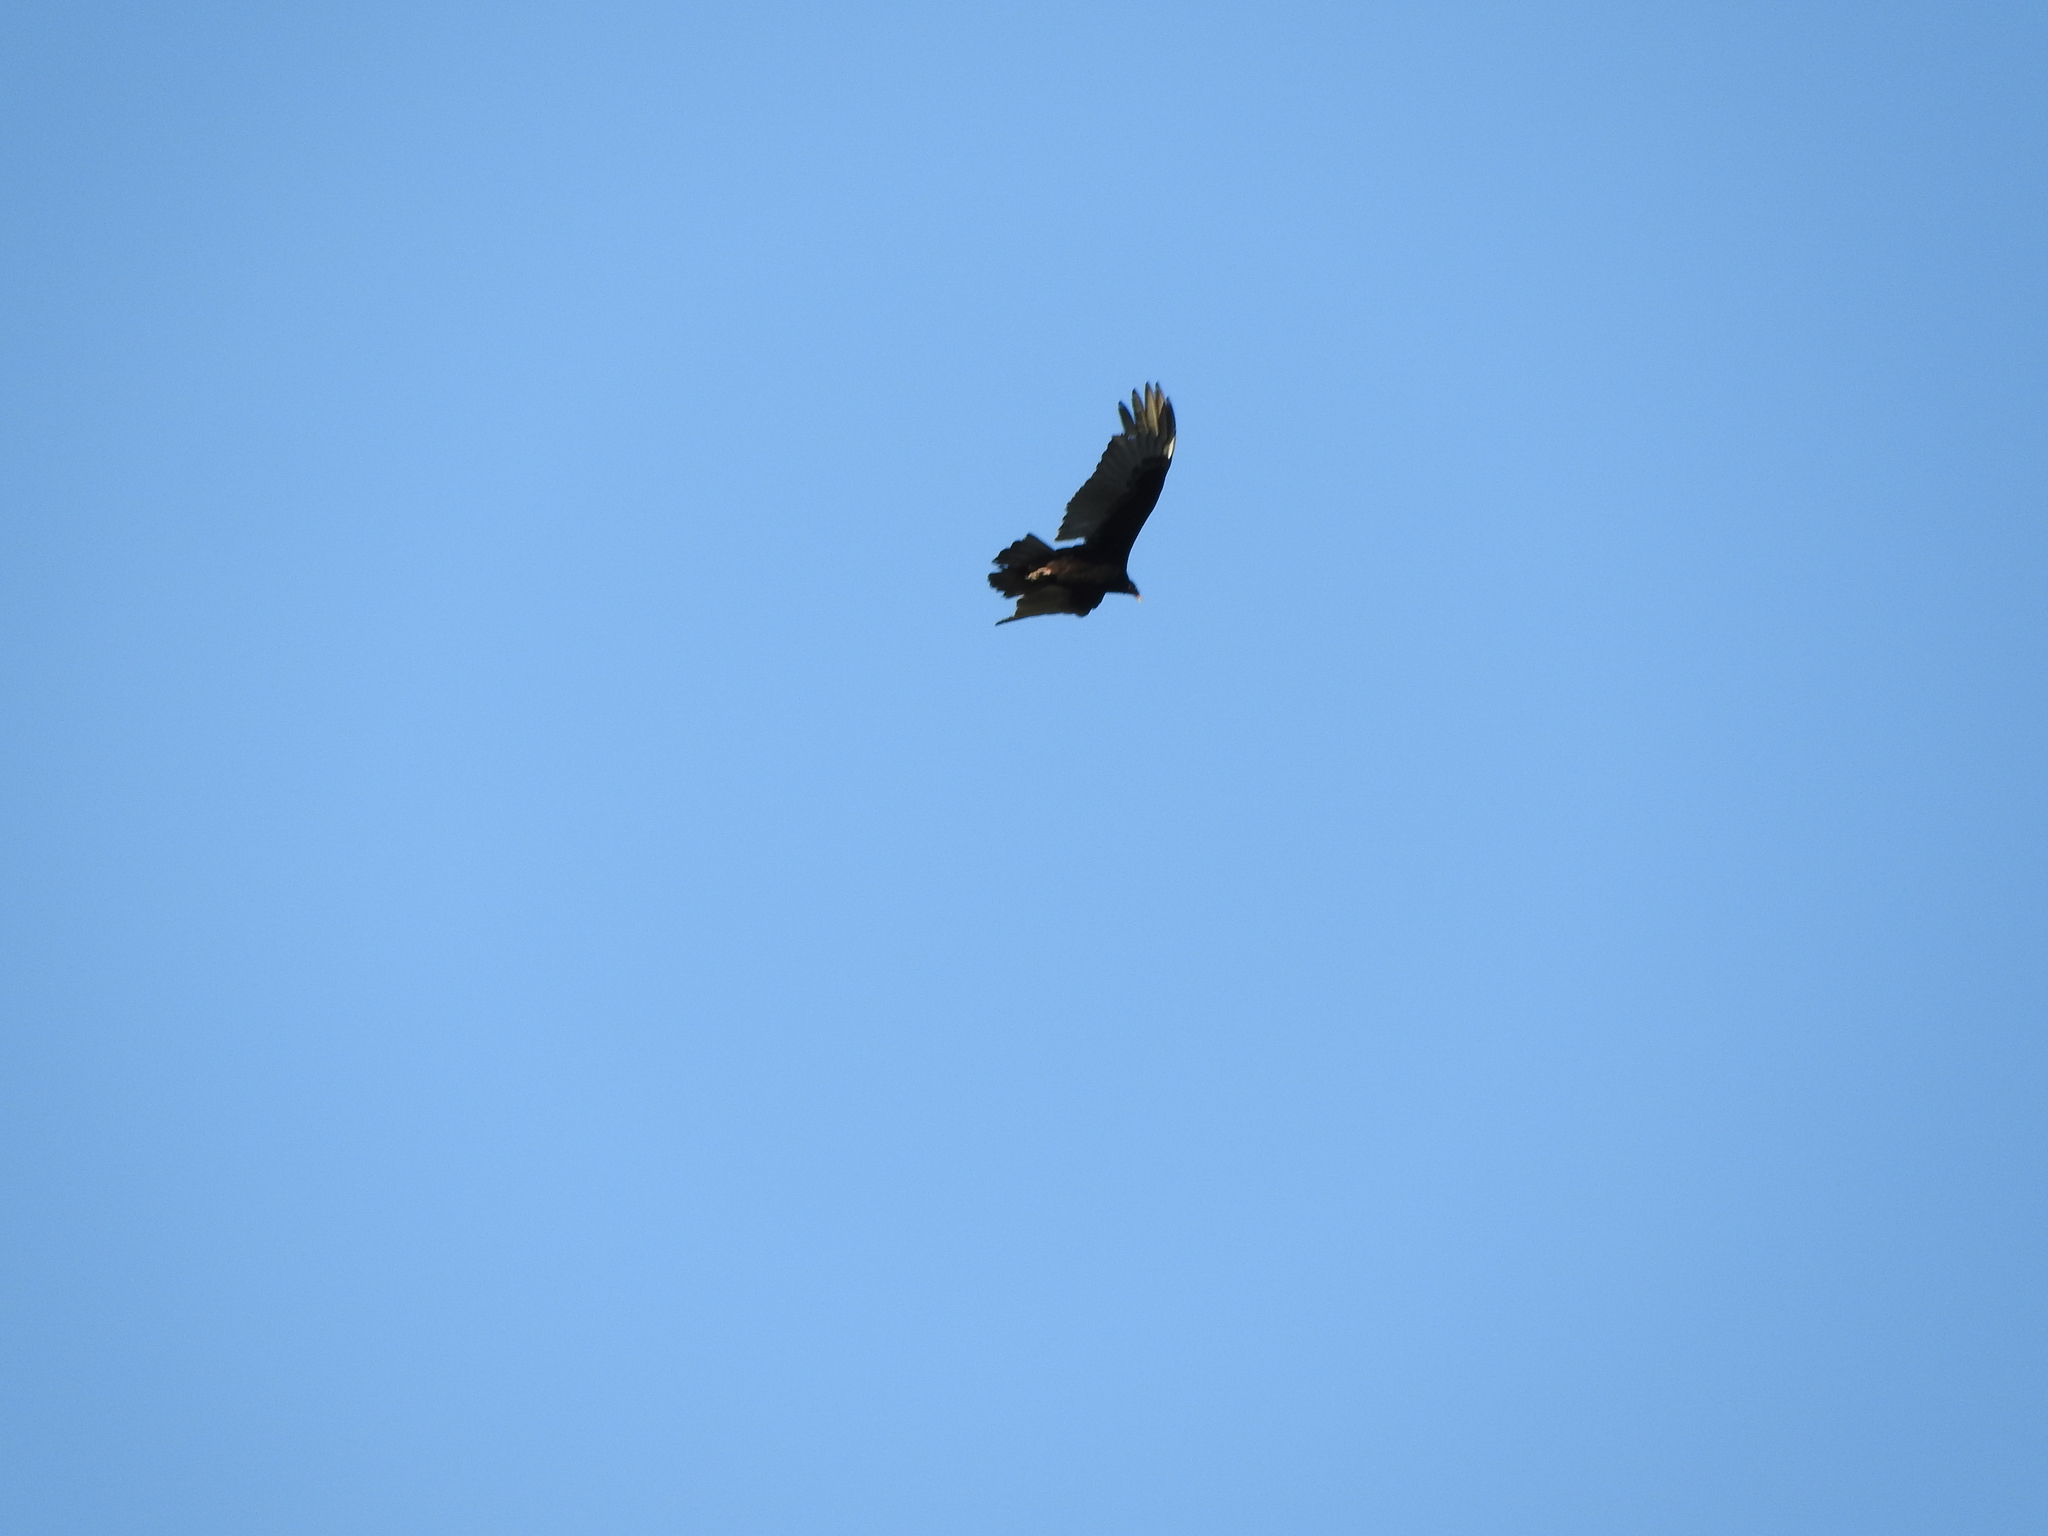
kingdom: Animalia
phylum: Chordata
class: Aves
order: Accipitriformes
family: Cathartidae
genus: Cathartes
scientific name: Cathartes aura
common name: Turkey vulture
